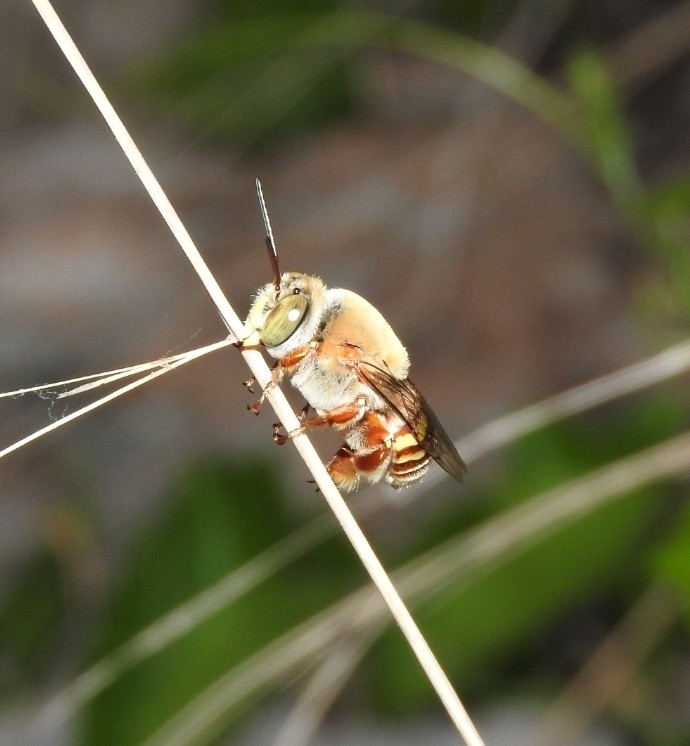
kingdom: Animalia
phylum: Arthropoda
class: Insecta
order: Hymenoptera
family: Apidae
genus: Centris
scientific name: Centris meaculpa
